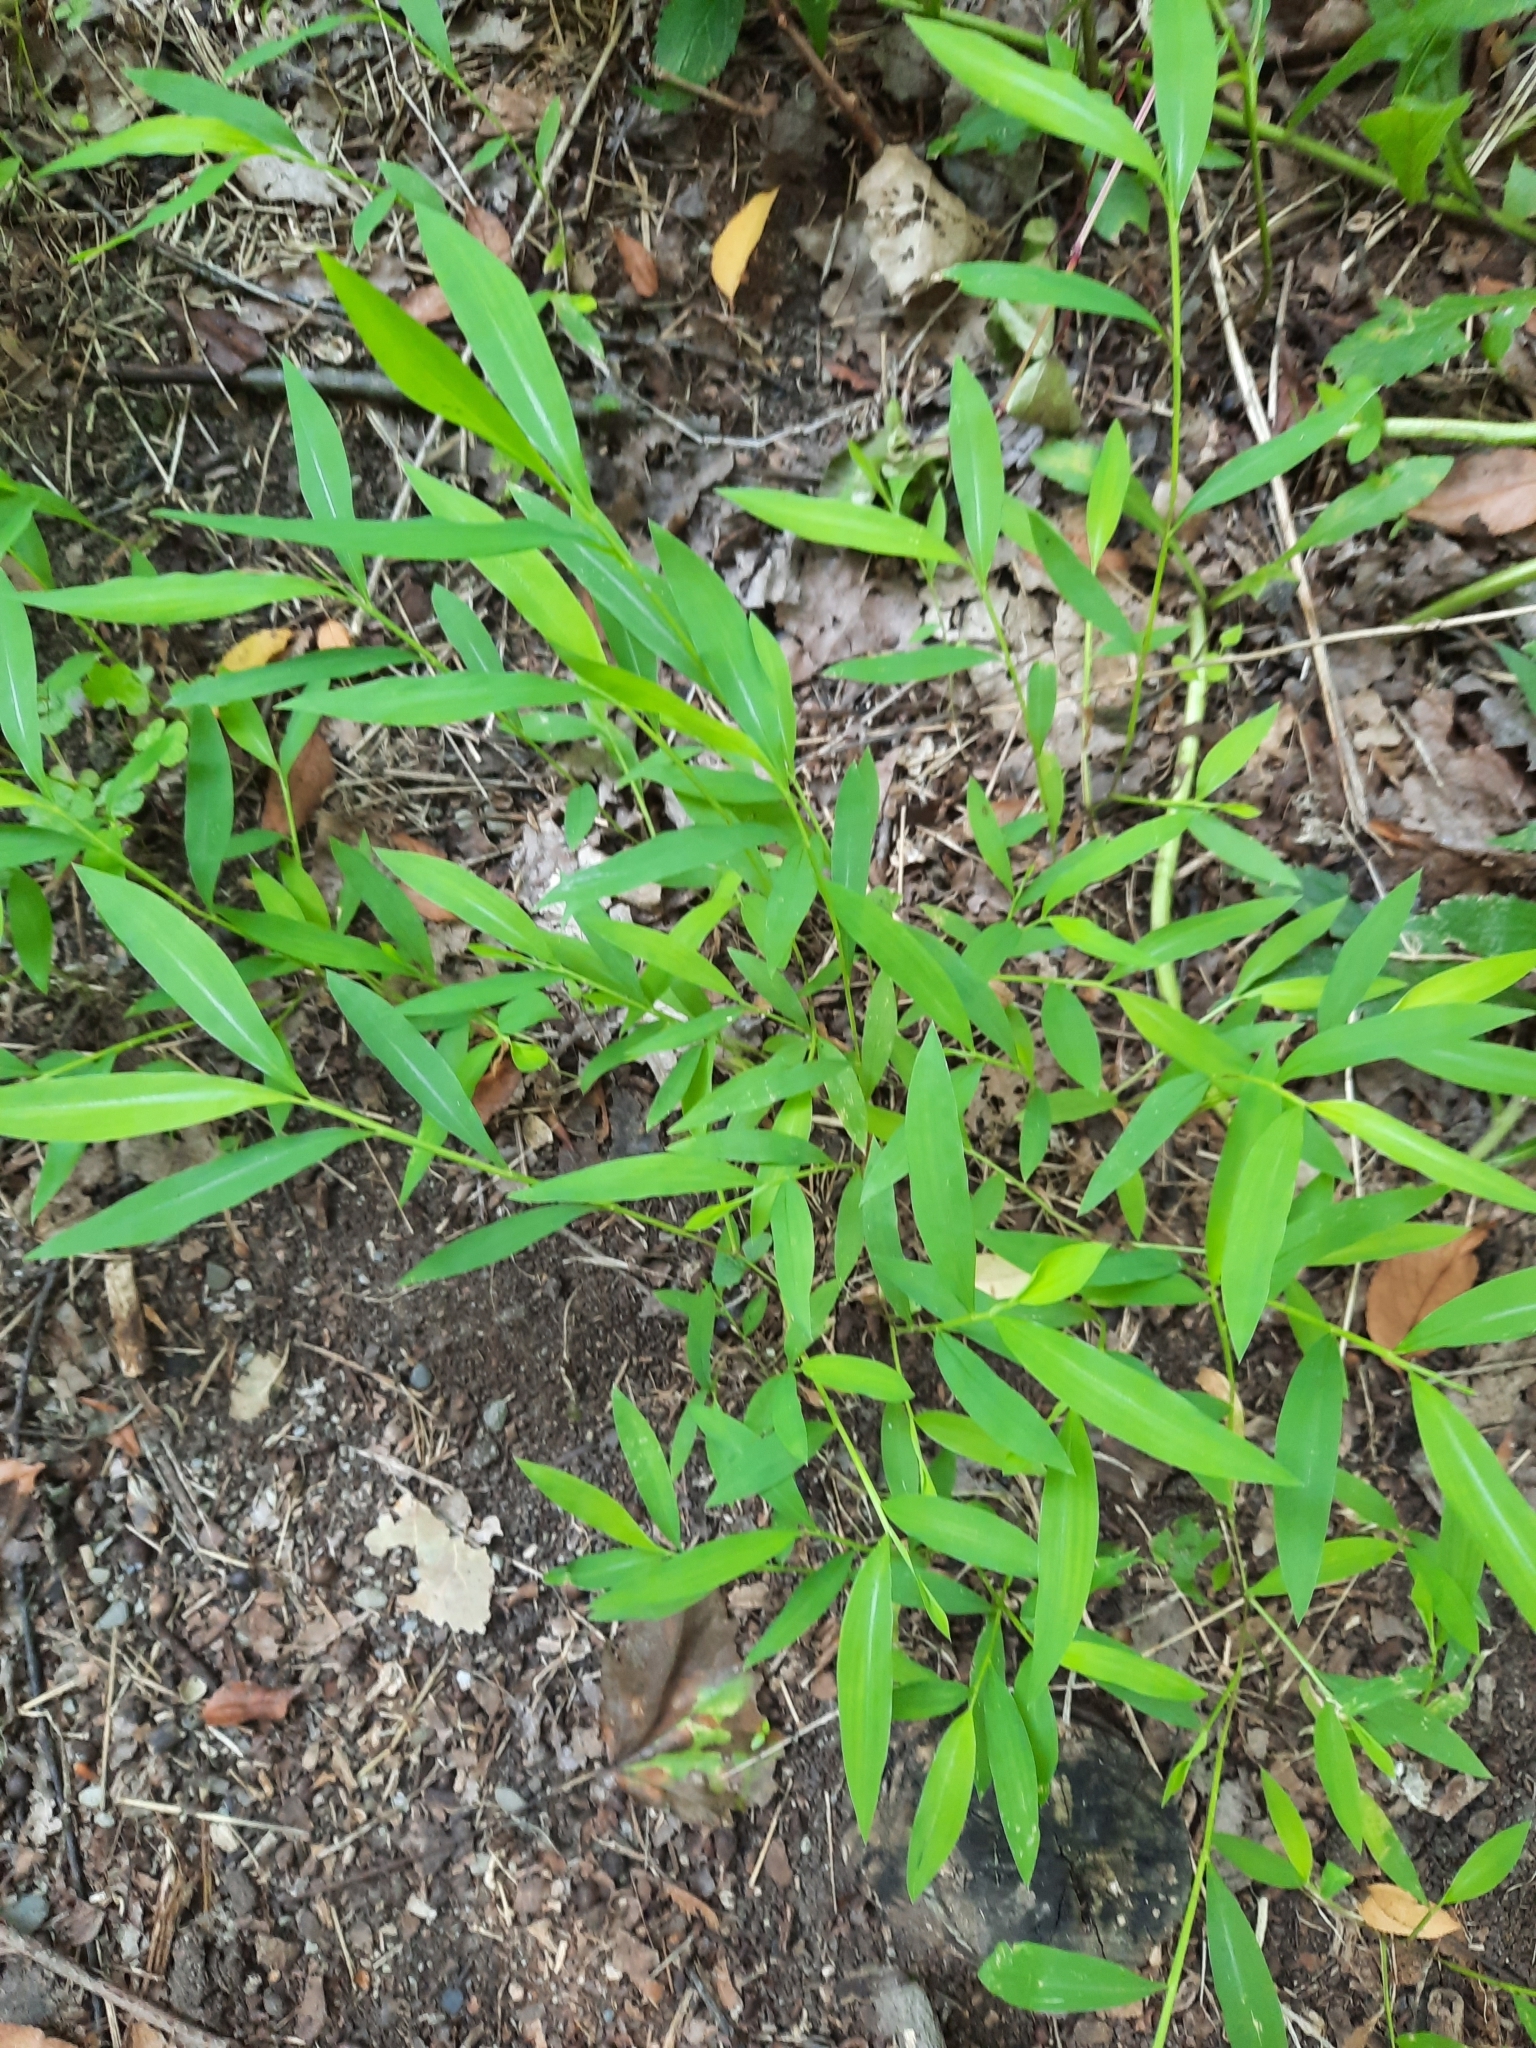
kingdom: Plantae
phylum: Tracheophyta
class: Liliopsida
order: Poales
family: Poaceae
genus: Microstegium
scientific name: Microstegium vimineum
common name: Japanese stiltgrass
